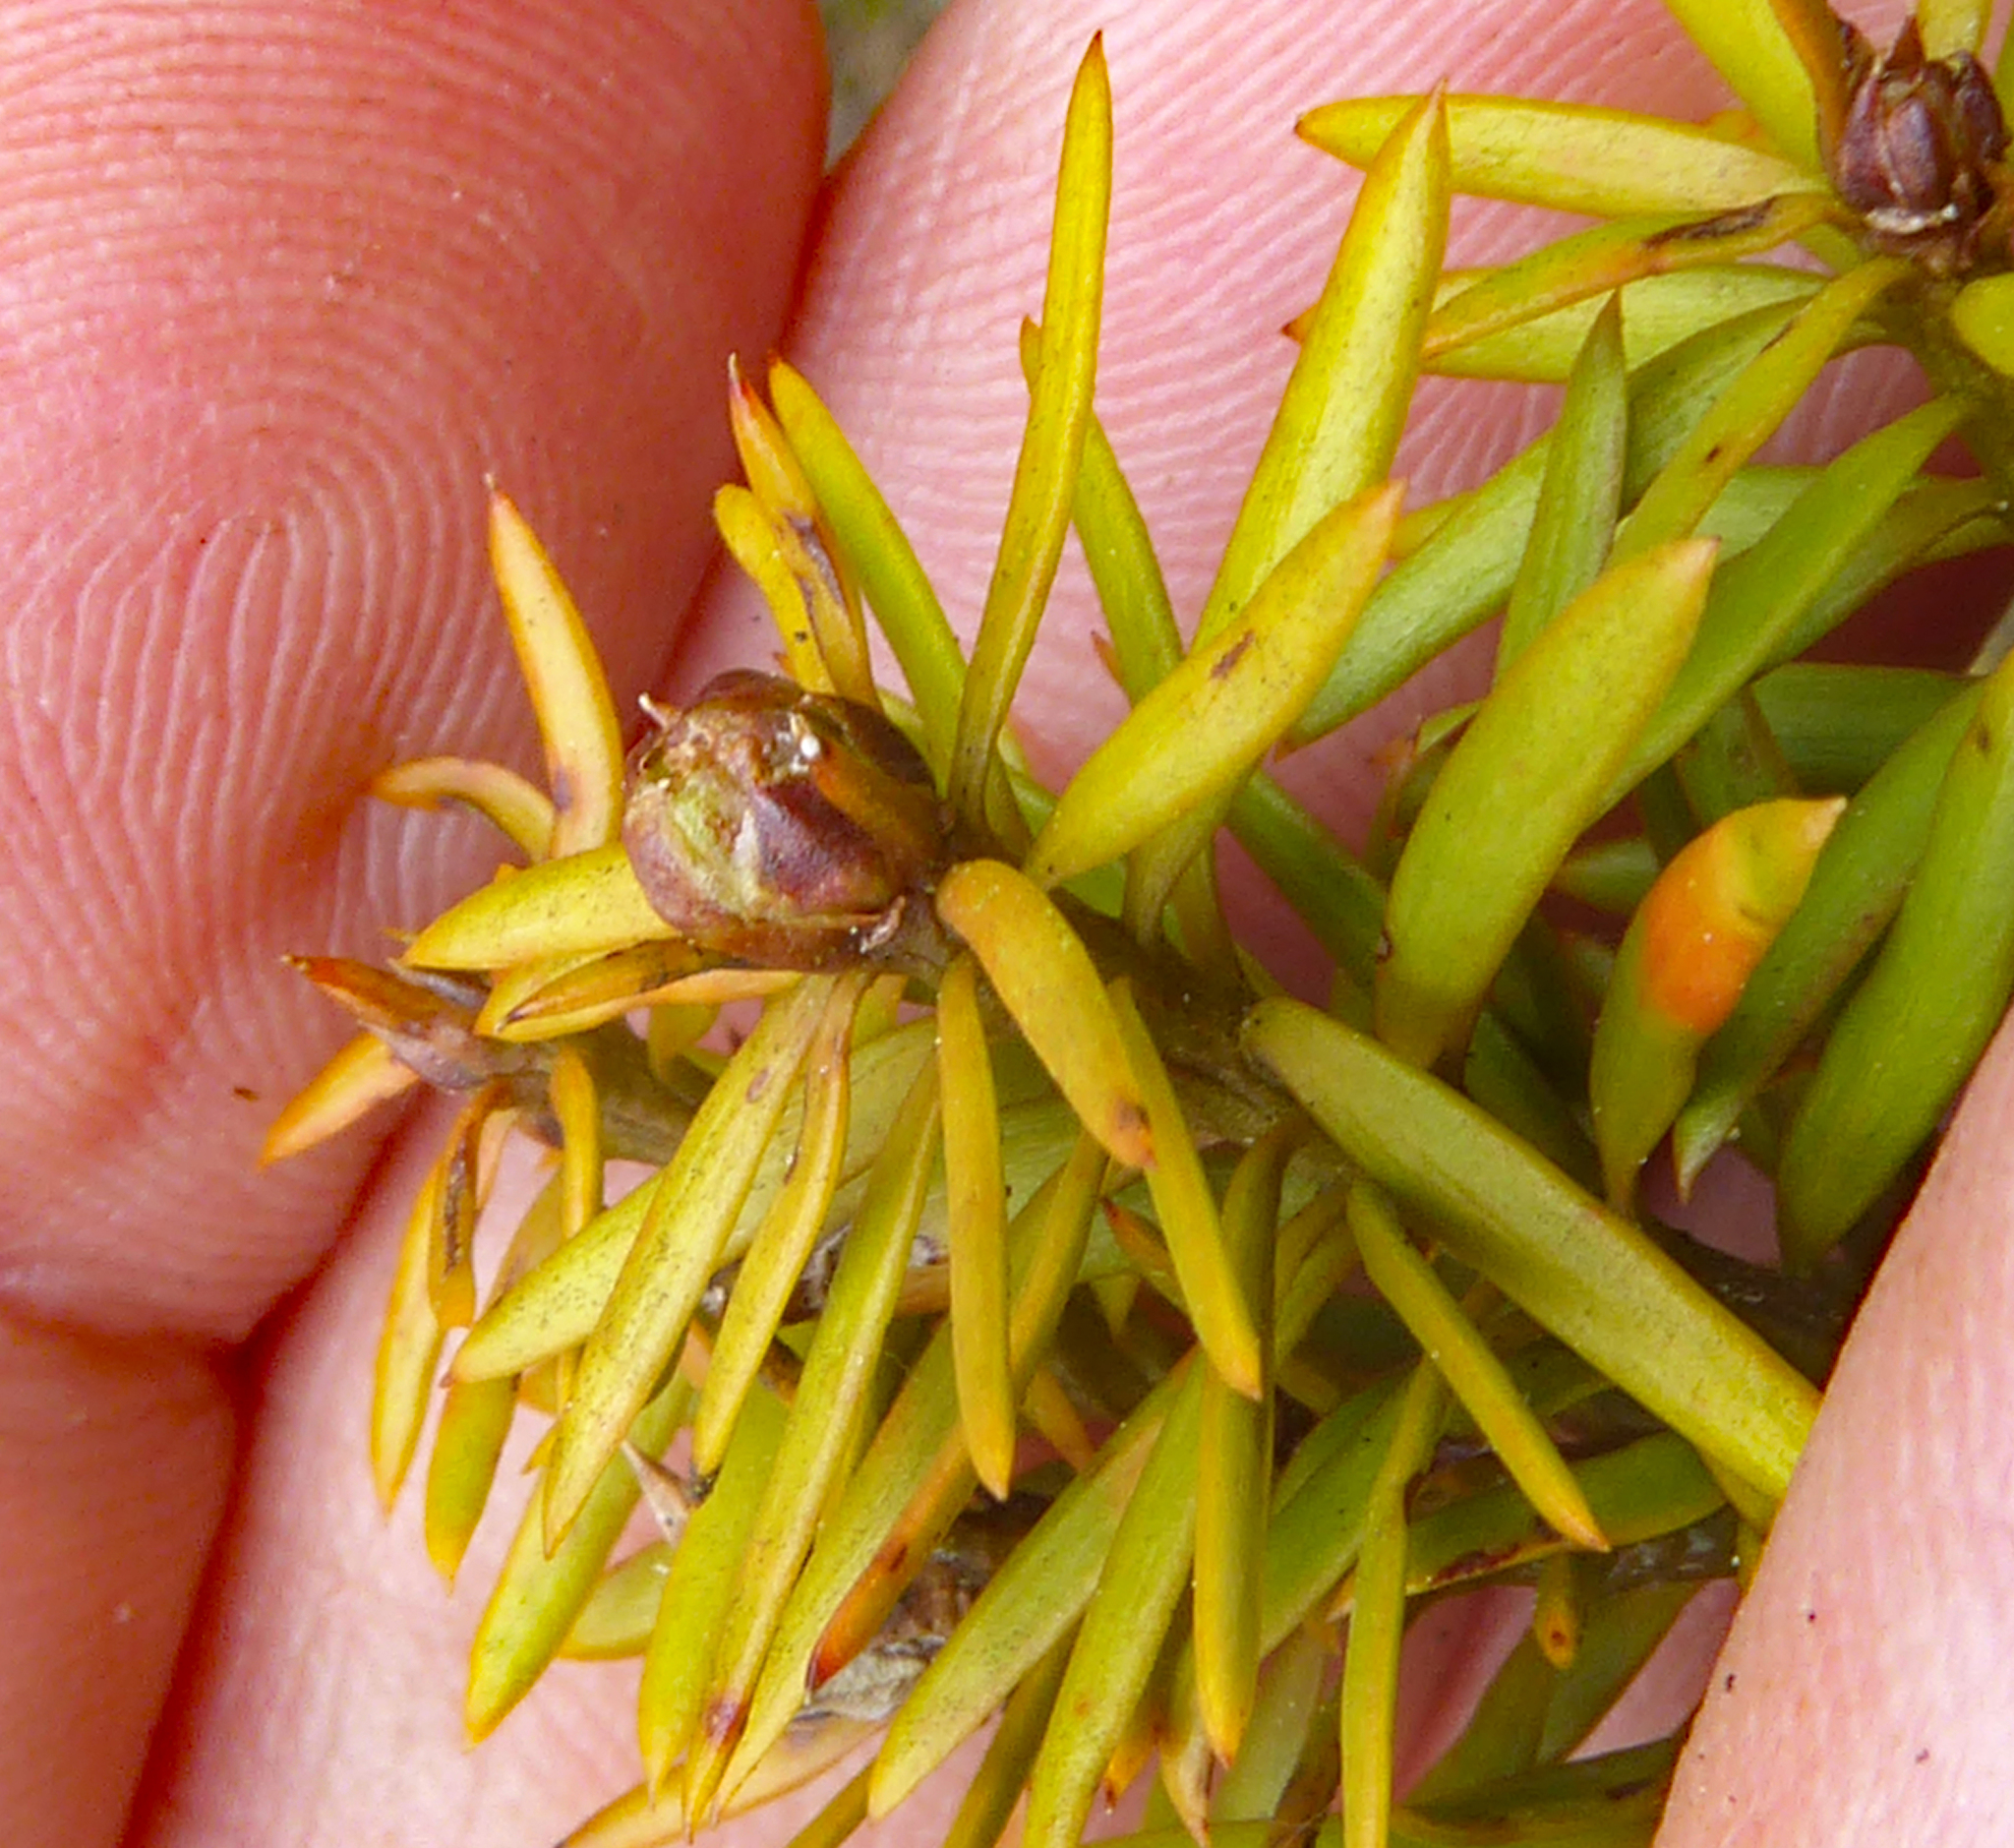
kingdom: Plantae
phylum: Tracheophyta
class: Pinopsida
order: Pinales
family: Podocarpaceae
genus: Podocarpus
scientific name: Podocarpus acutifolius
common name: Needle-leaved totara
